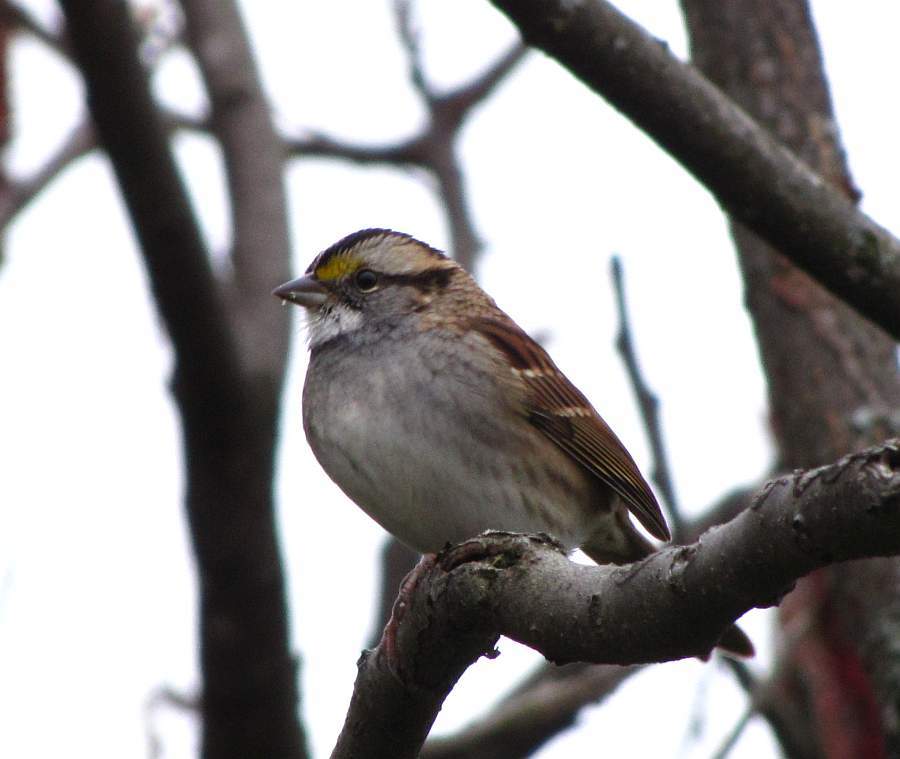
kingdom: Animalia
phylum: Chordata
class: Aves
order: Passeriformes
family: Passerellidae
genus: Zonotrichia
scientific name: Zonotrichia albicollis
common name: White-throated sparrow
